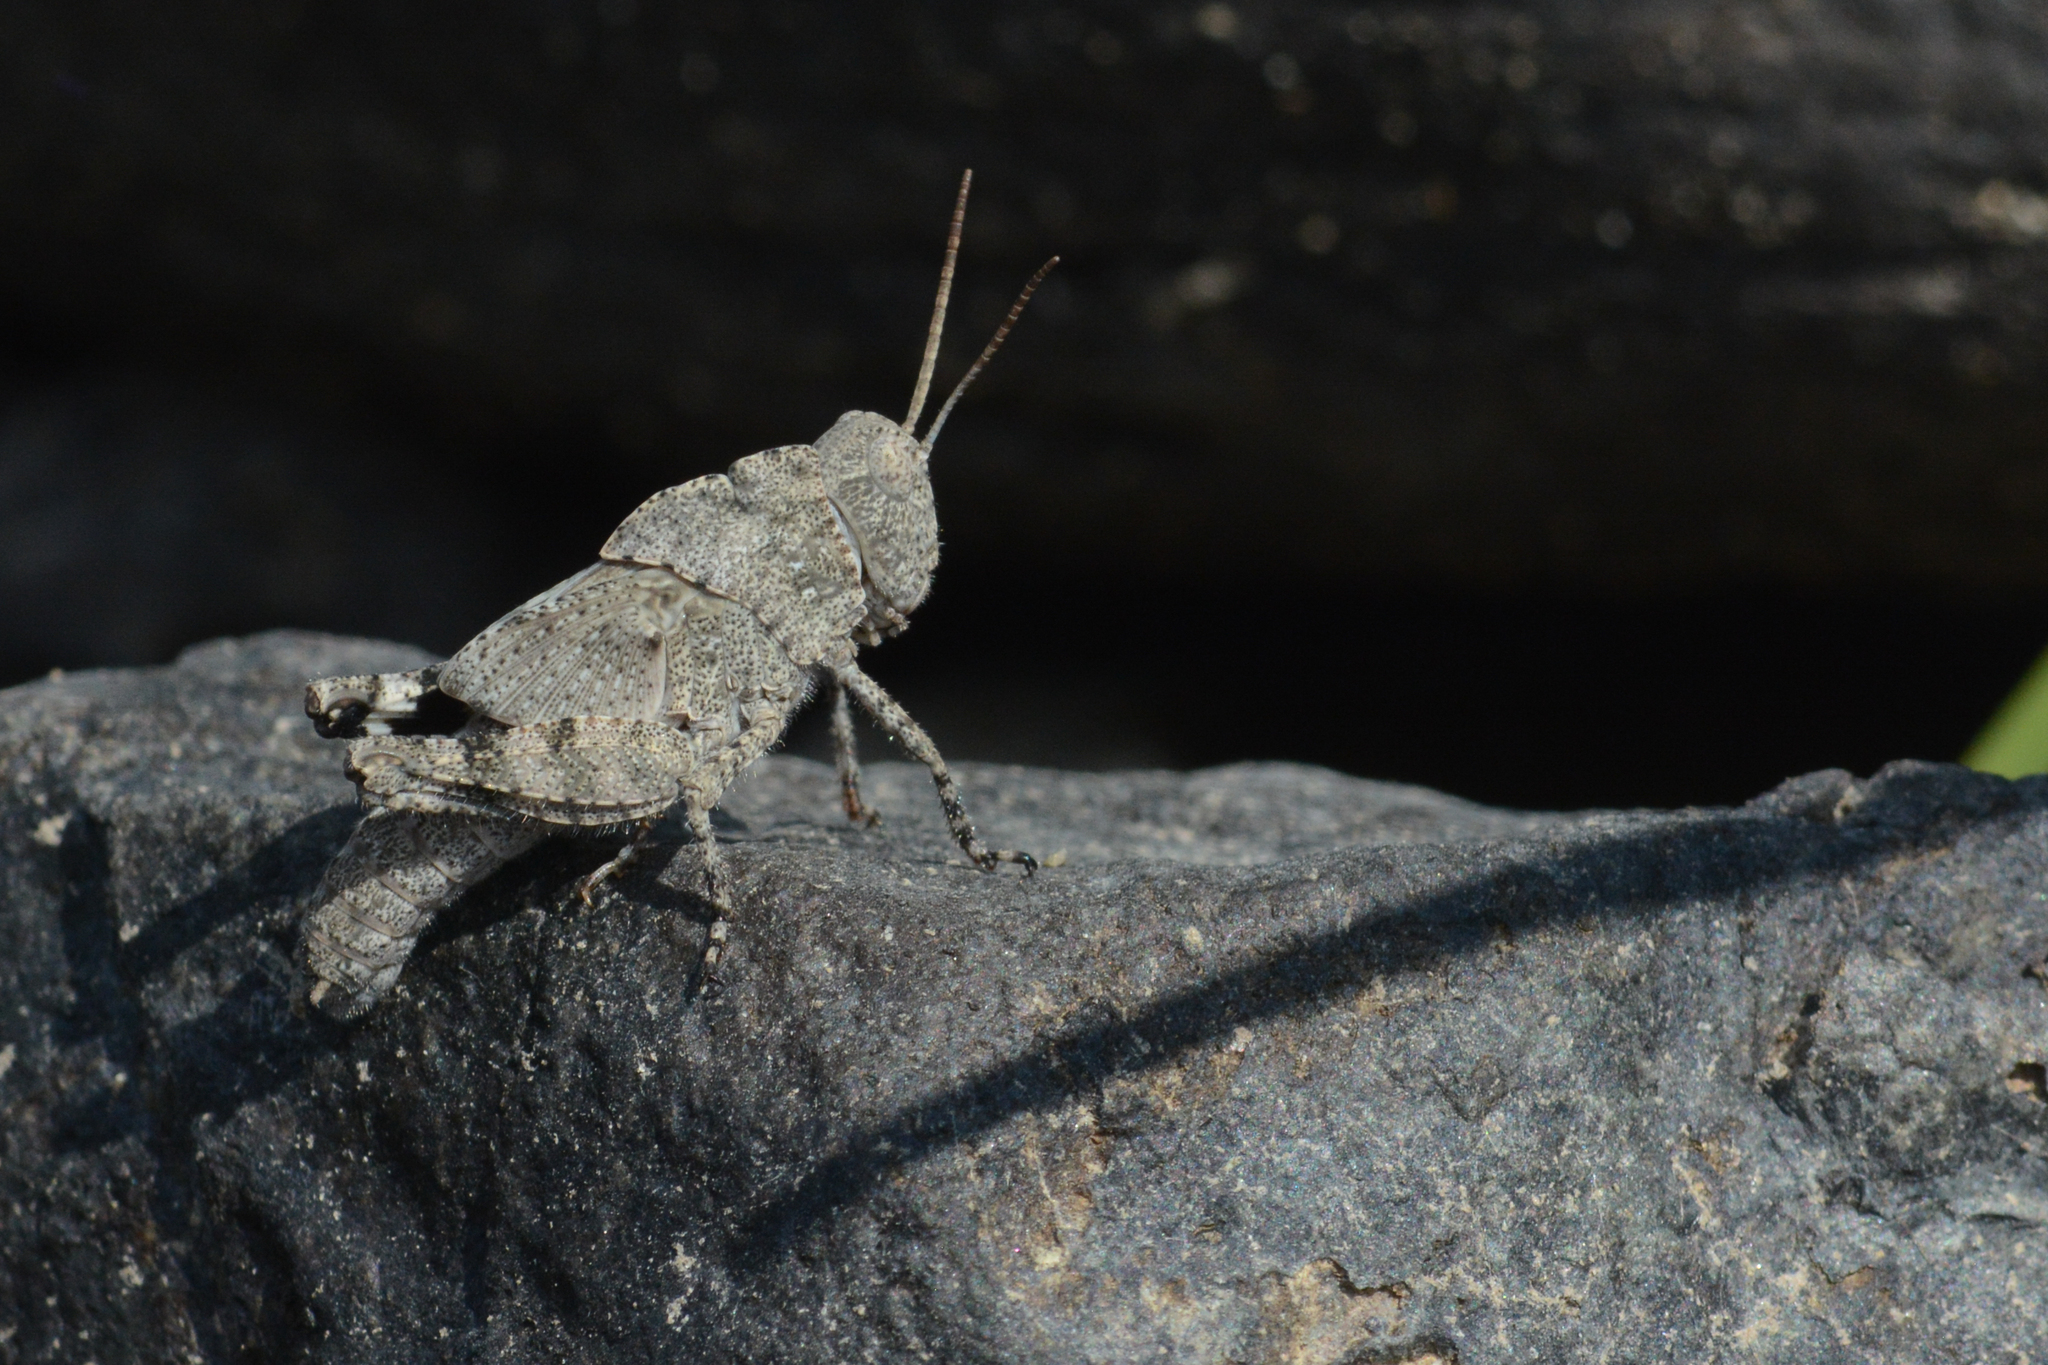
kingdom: Animalia
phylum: Arthropoda
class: Insecta
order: Orthoptera
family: Acrididae
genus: Dissosteira
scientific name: Dissosteira carolina
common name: Carolina grasshopper
